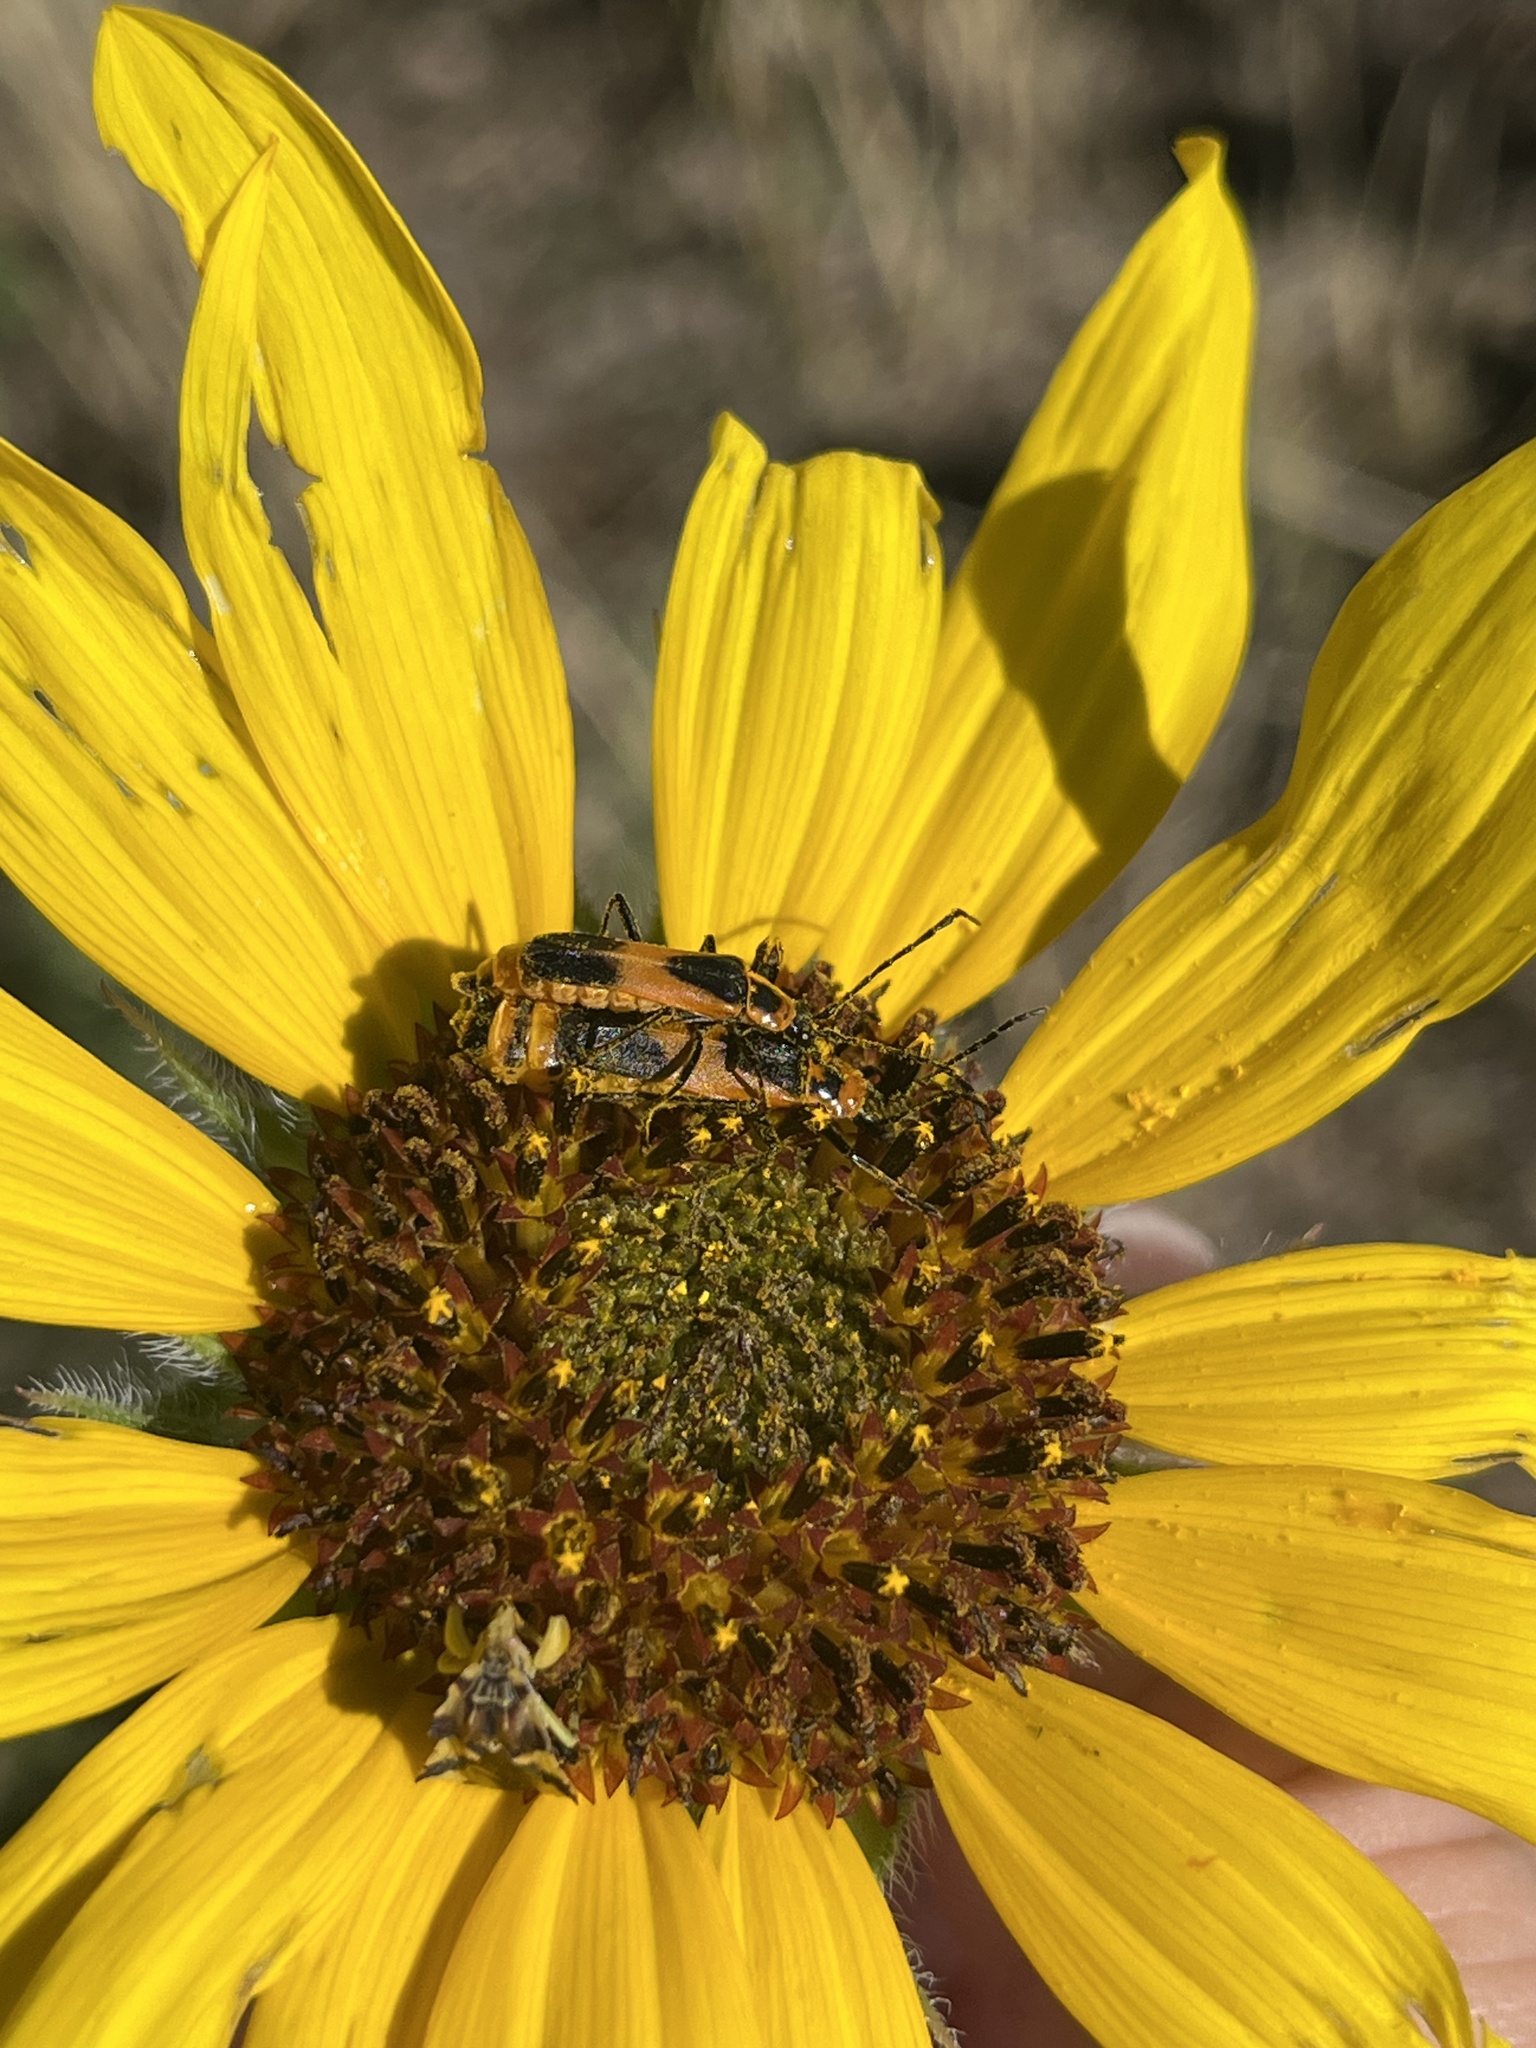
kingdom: Animalia
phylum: Arthropoda
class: Insecta
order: Coleoptera
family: Cantharidae
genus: Chauliognathus
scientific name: Chauliognathus basalis
